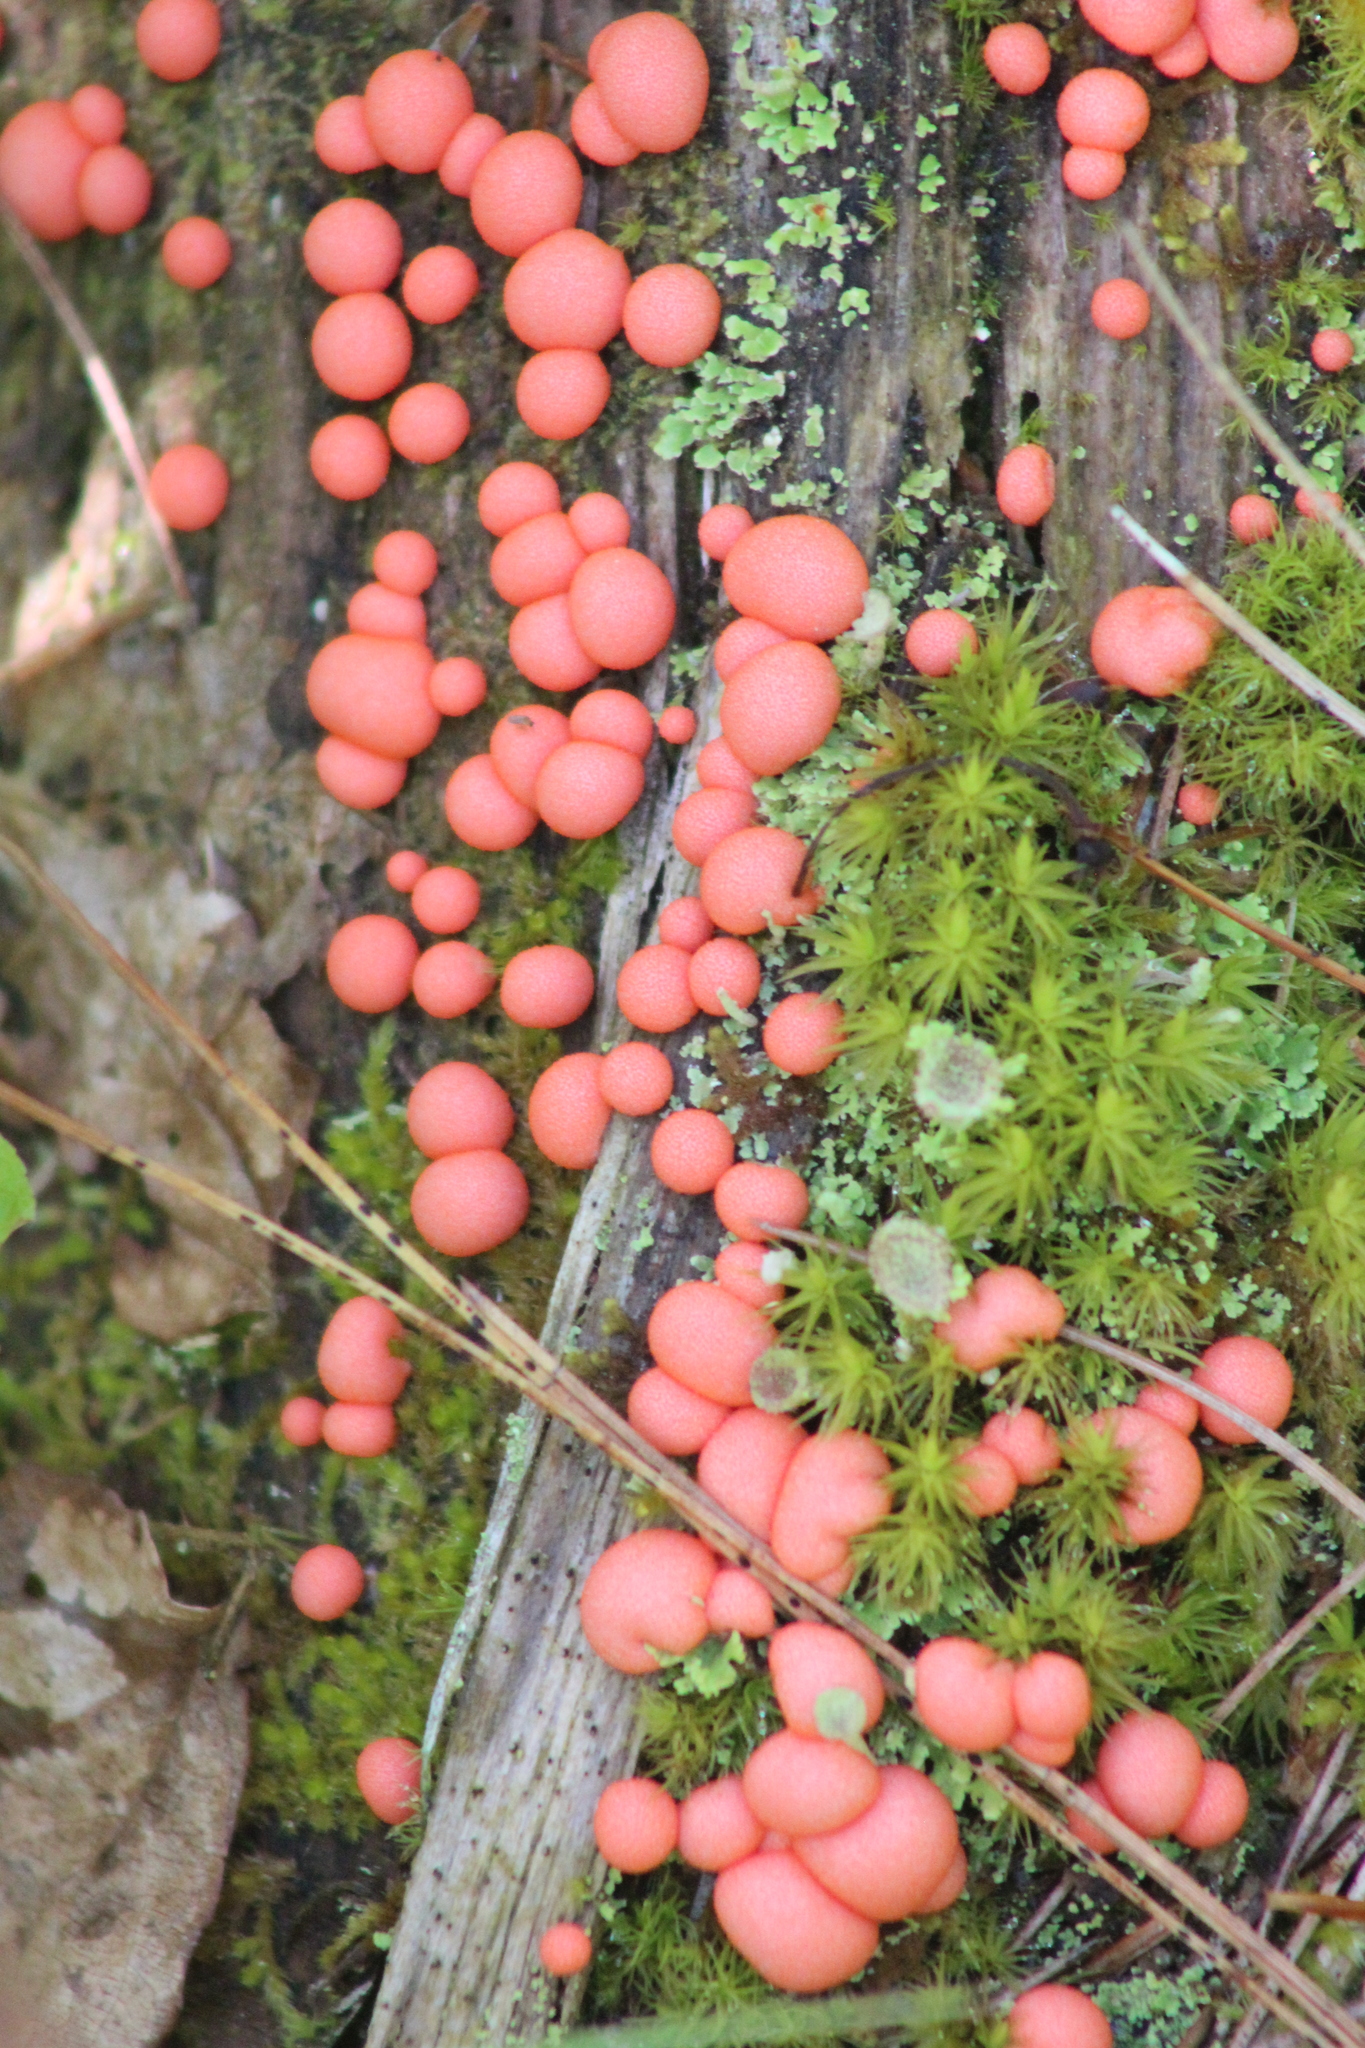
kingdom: Protozoa
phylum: Mycetozoa
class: Myxomycetes
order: Cribrariales
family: Tubiferaceae
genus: Lycogala
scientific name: Lycogala epidendrum
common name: Wolf's milk
